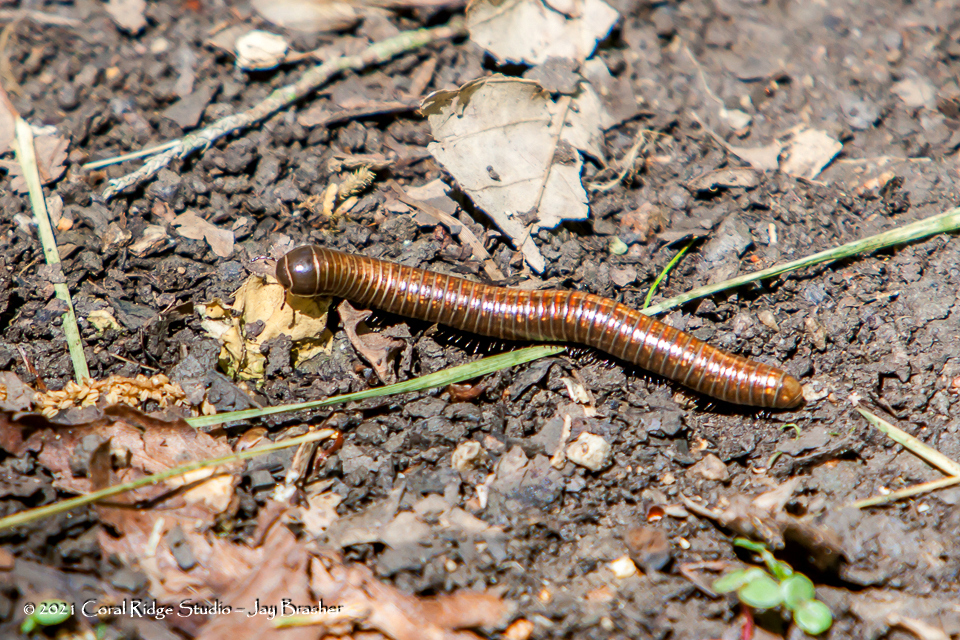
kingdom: Animalia
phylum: Arthropoda
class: Diplopoda
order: Spirostreptida
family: Choctellidae
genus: Choctella
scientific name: Choctella cumminsi
